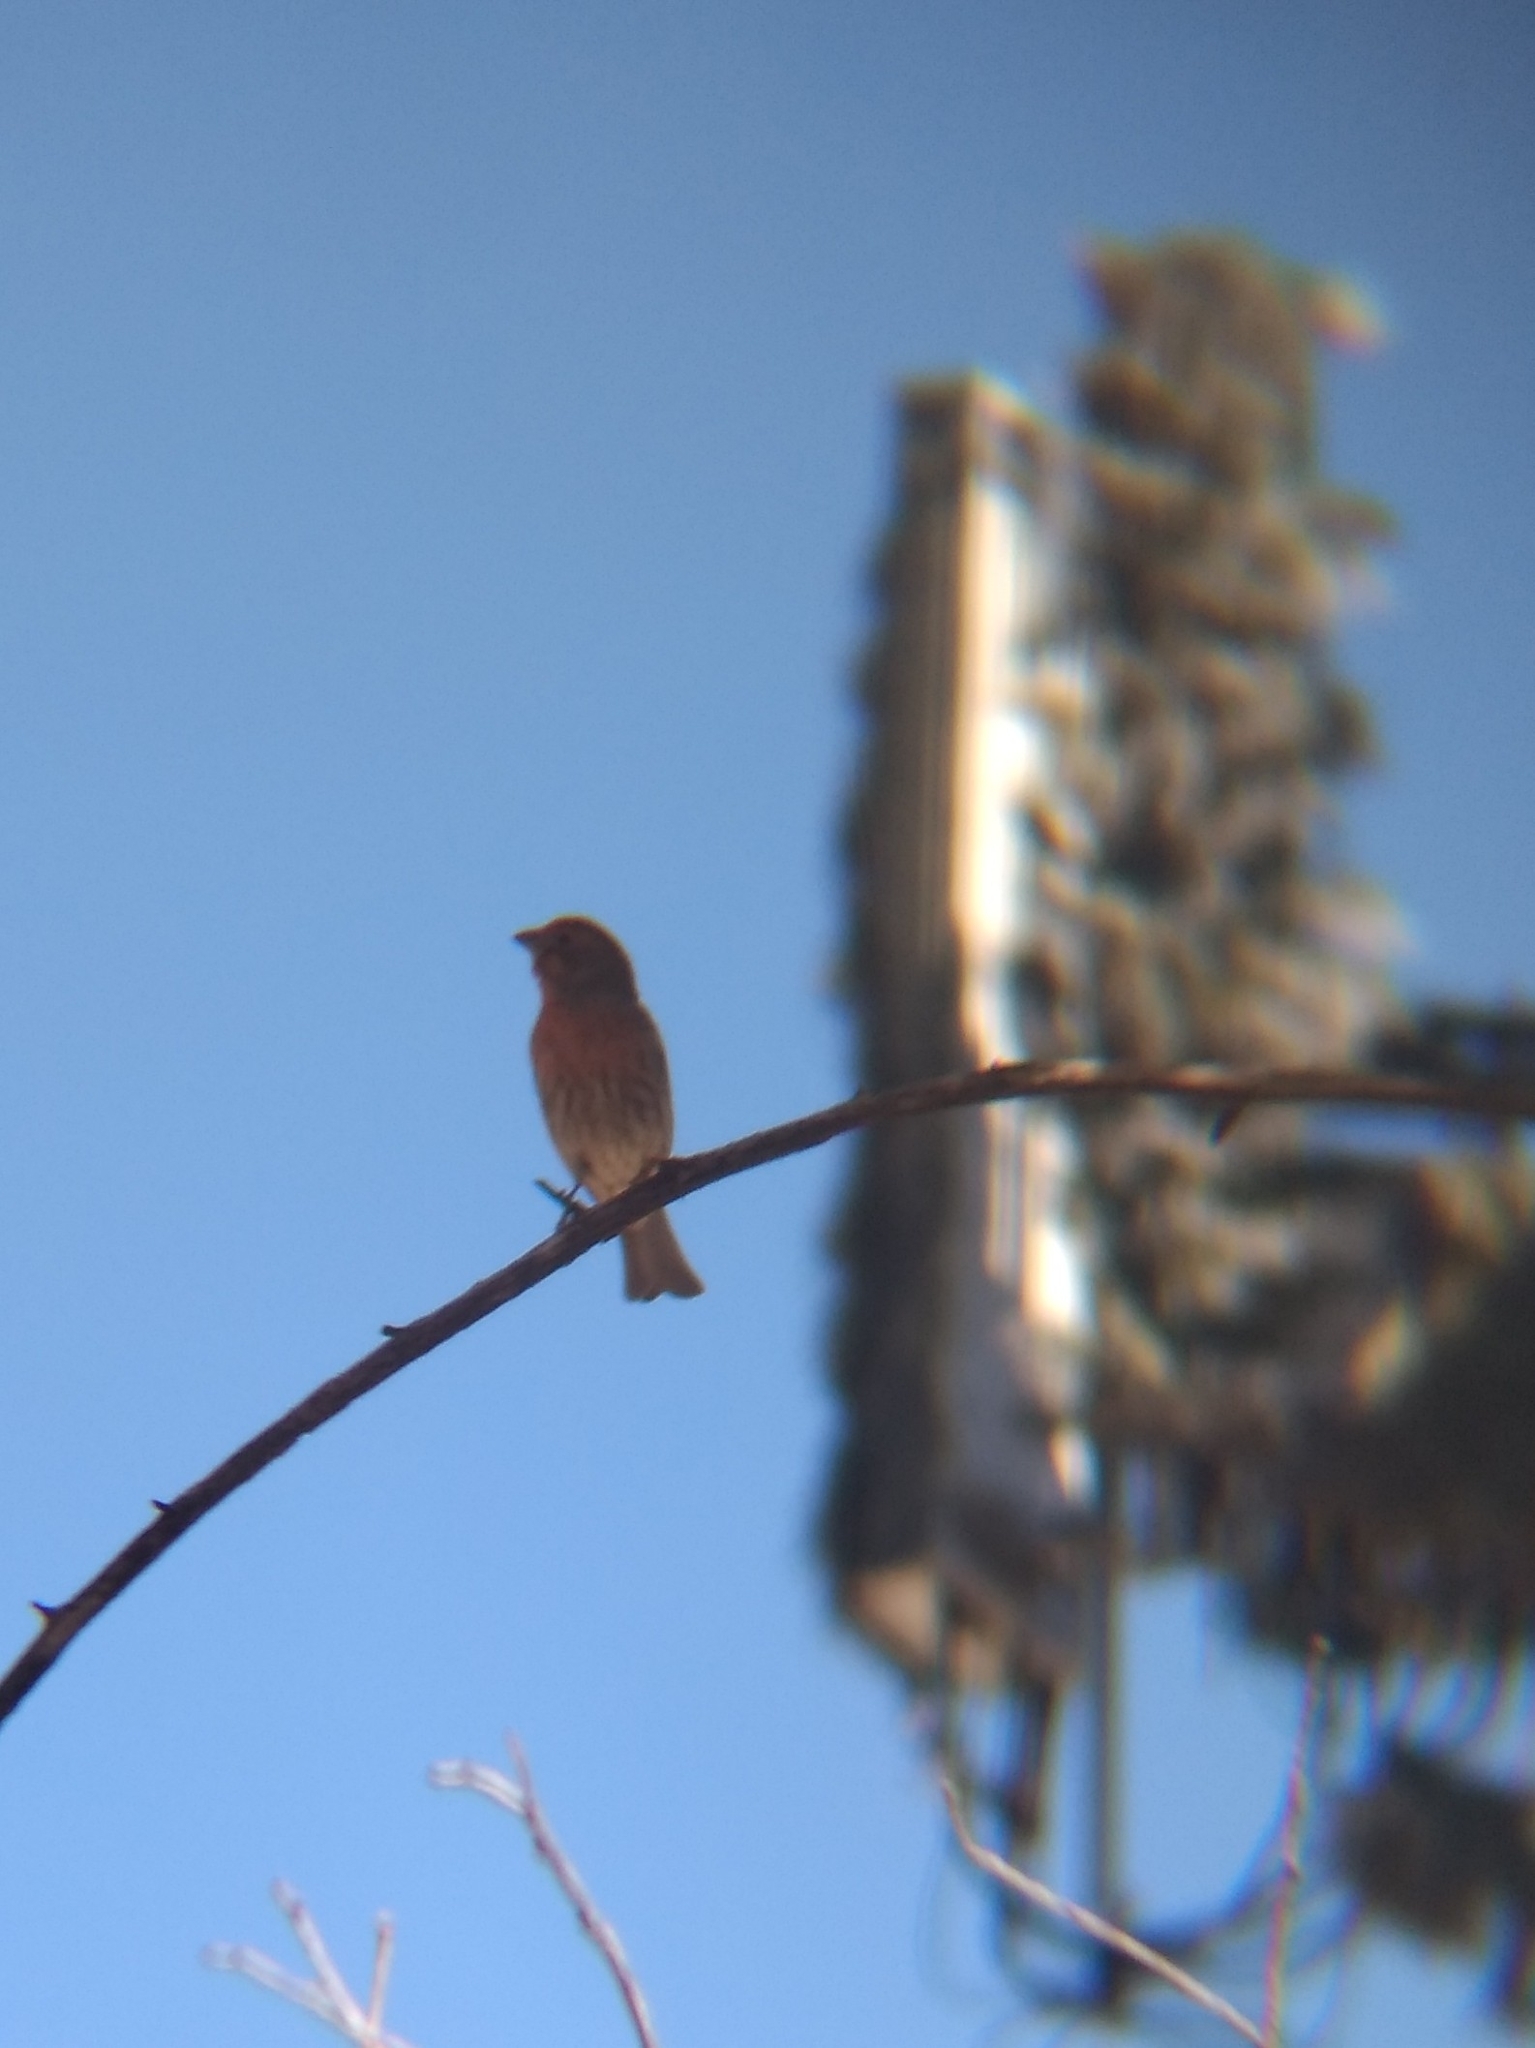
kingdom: Animalia
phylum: Chordata
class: Aves
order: Passeriformes
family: Fringillidae
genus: Haemorhous
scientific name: Haemorhous mexicanus
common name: House finch
